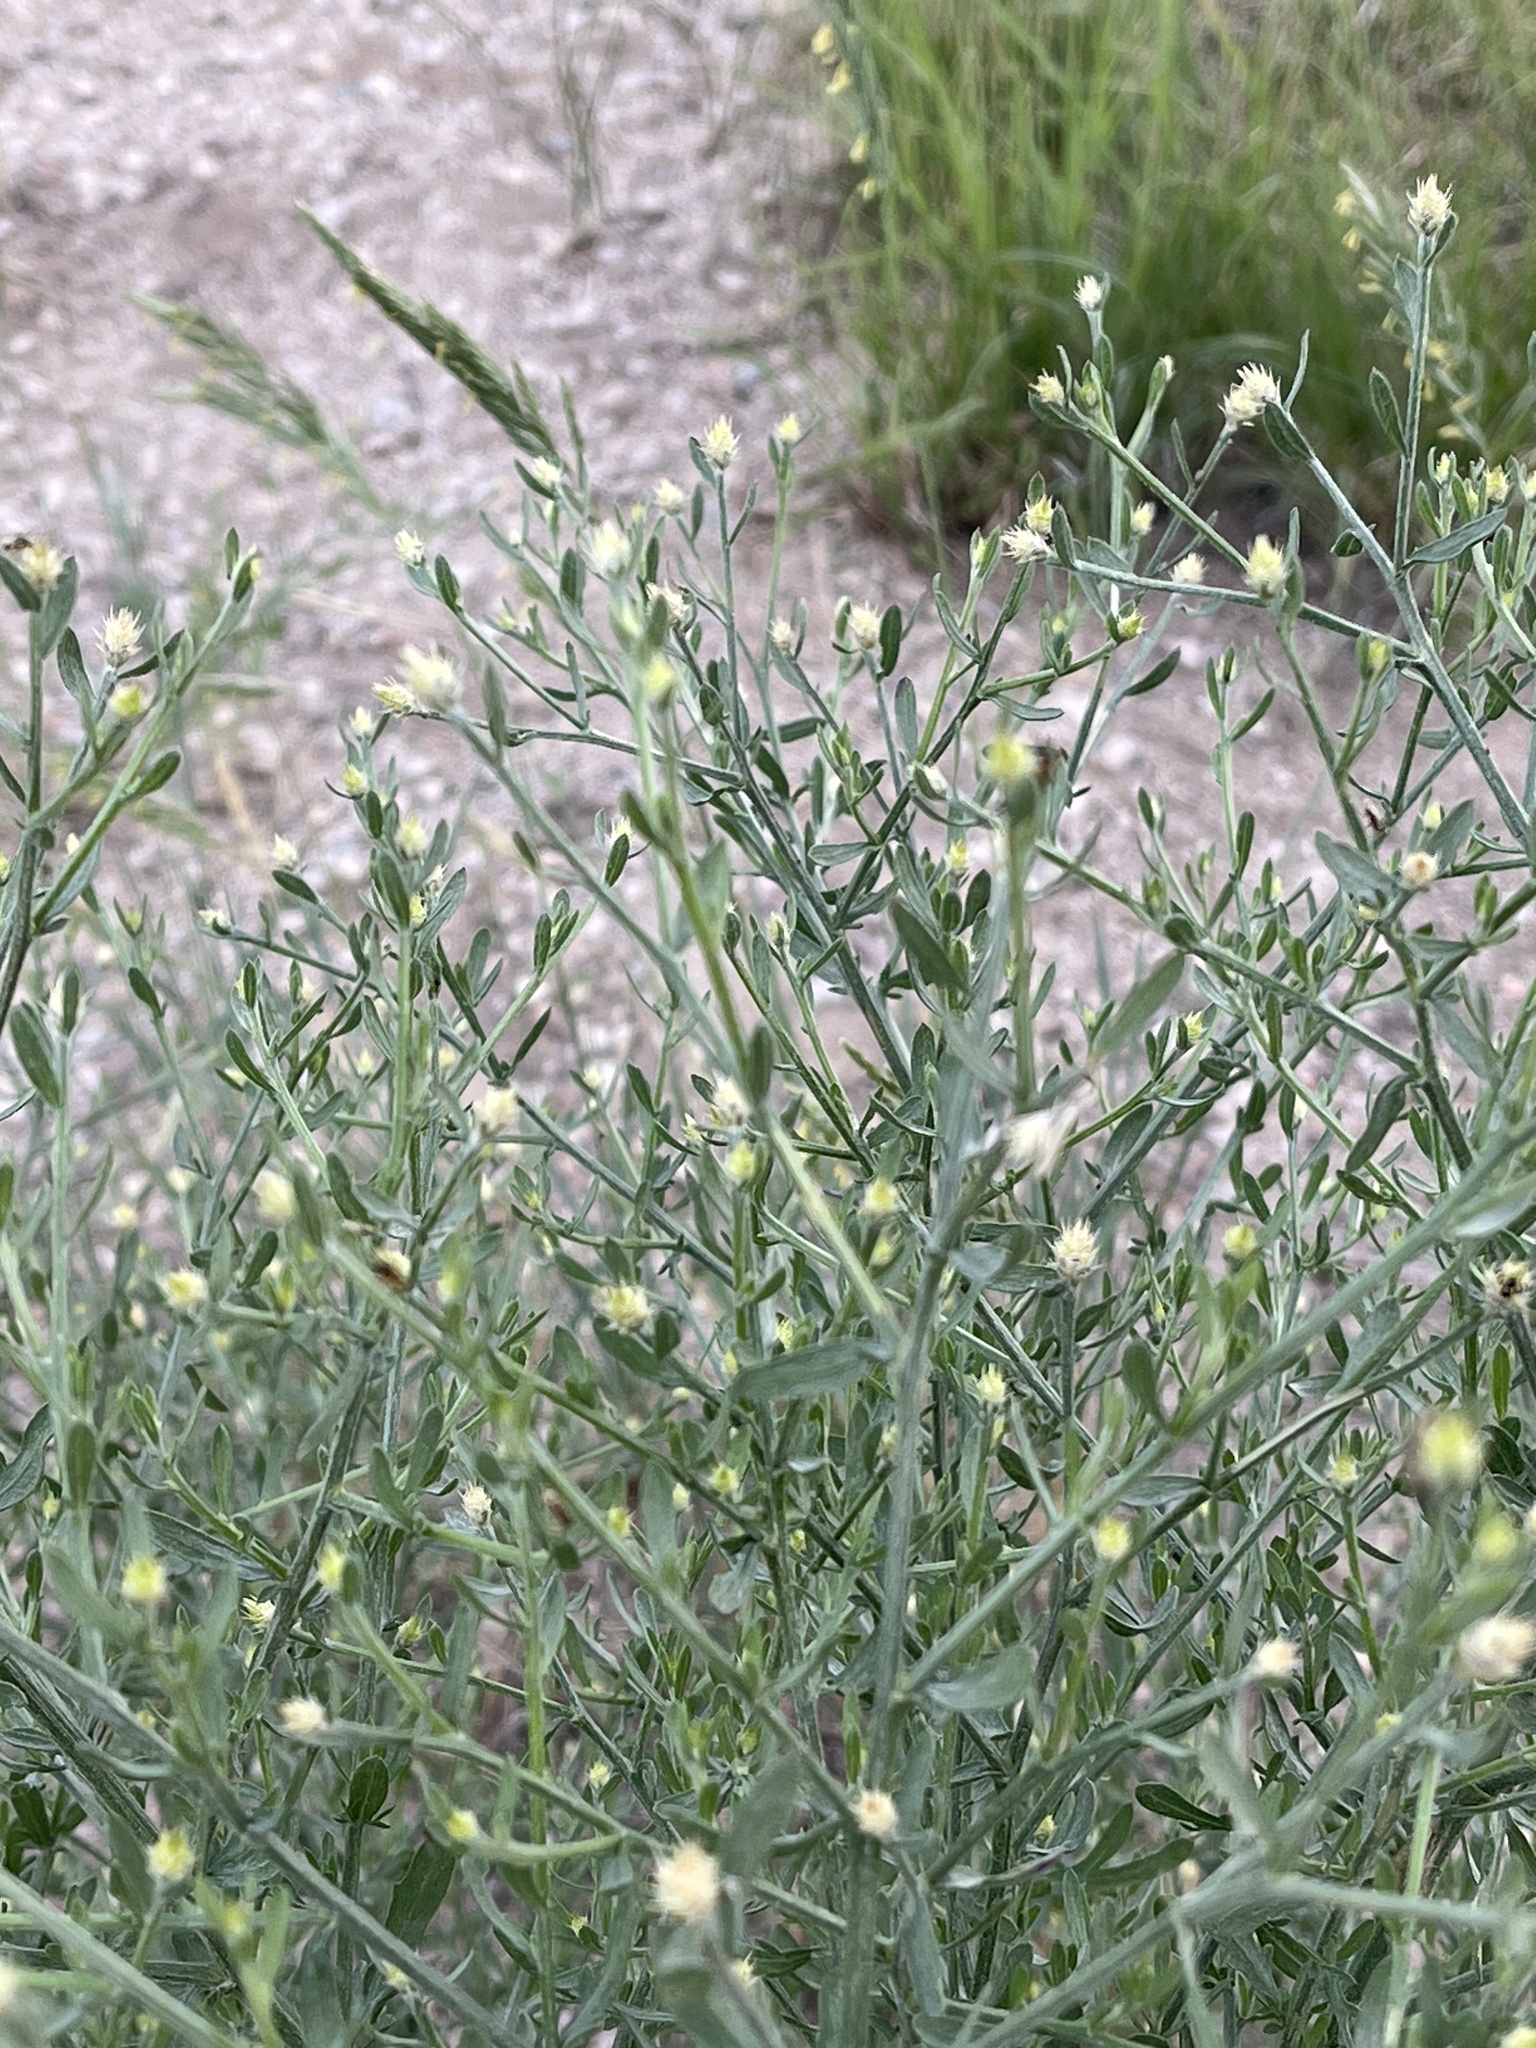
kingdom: Plantae
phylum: Tracheophyta
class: Magnoliopsida
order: Asterales
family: Asteraceae
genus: Centaurea
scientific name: Centaurea diffusa
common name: Diffuse knapweed
